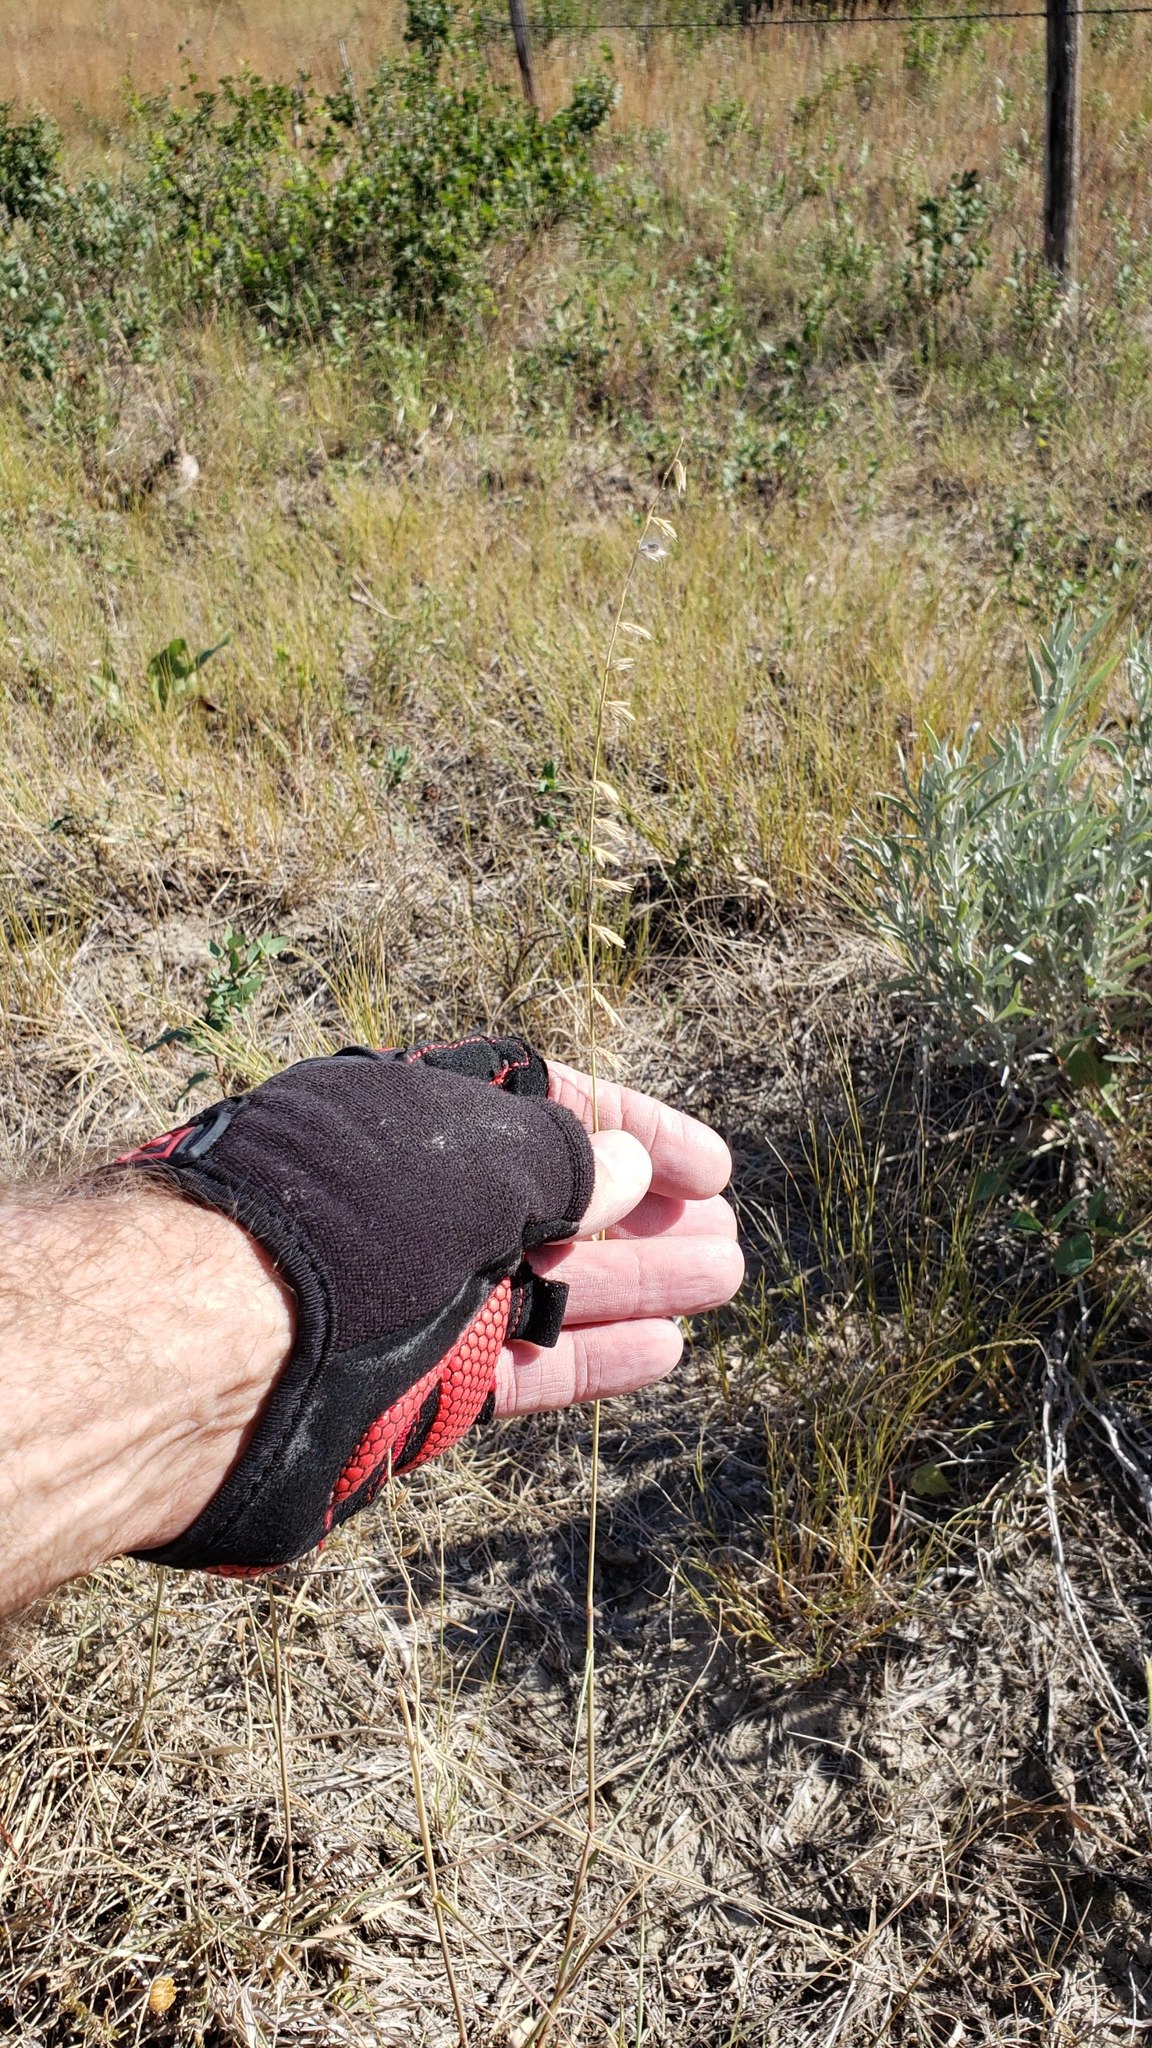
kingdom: Plantae
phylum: Tracheophyta
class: Liliopsida
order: Poales
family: Poaceae
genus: Bouteloua
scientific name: Bouteloua curtipendula
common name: Side-oats grama
